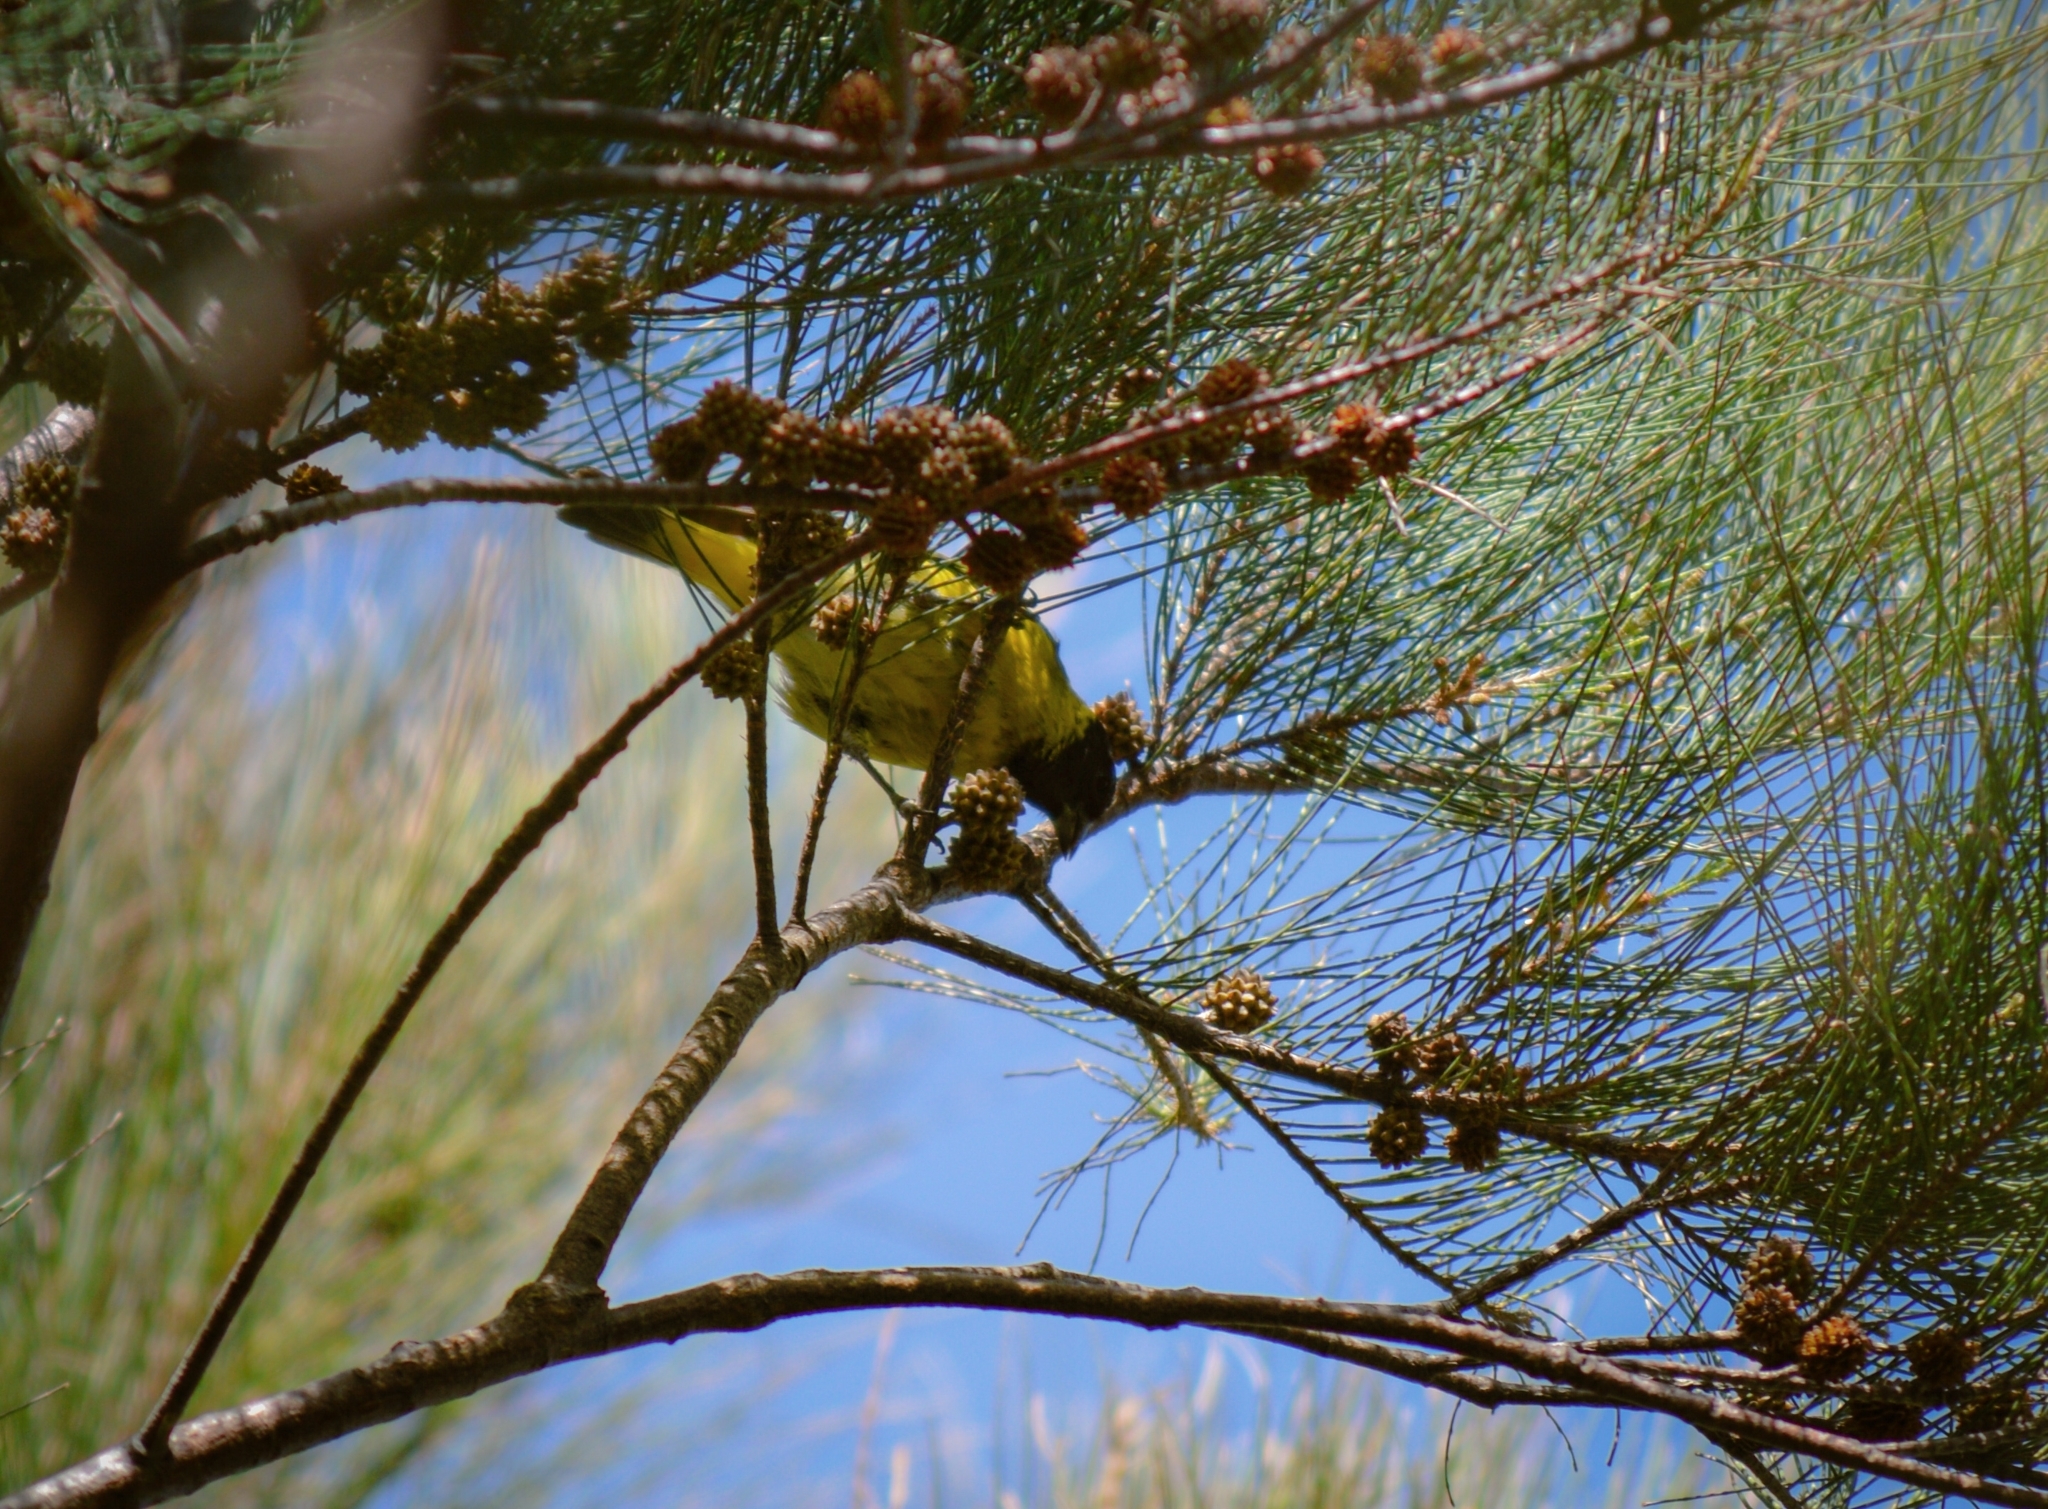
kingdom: Animalia
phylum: Chordata
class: Aves
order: Passeriformes
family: Fringillidae
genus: Spinus
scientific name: Spinus magellanicus
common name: Hooded siskin
